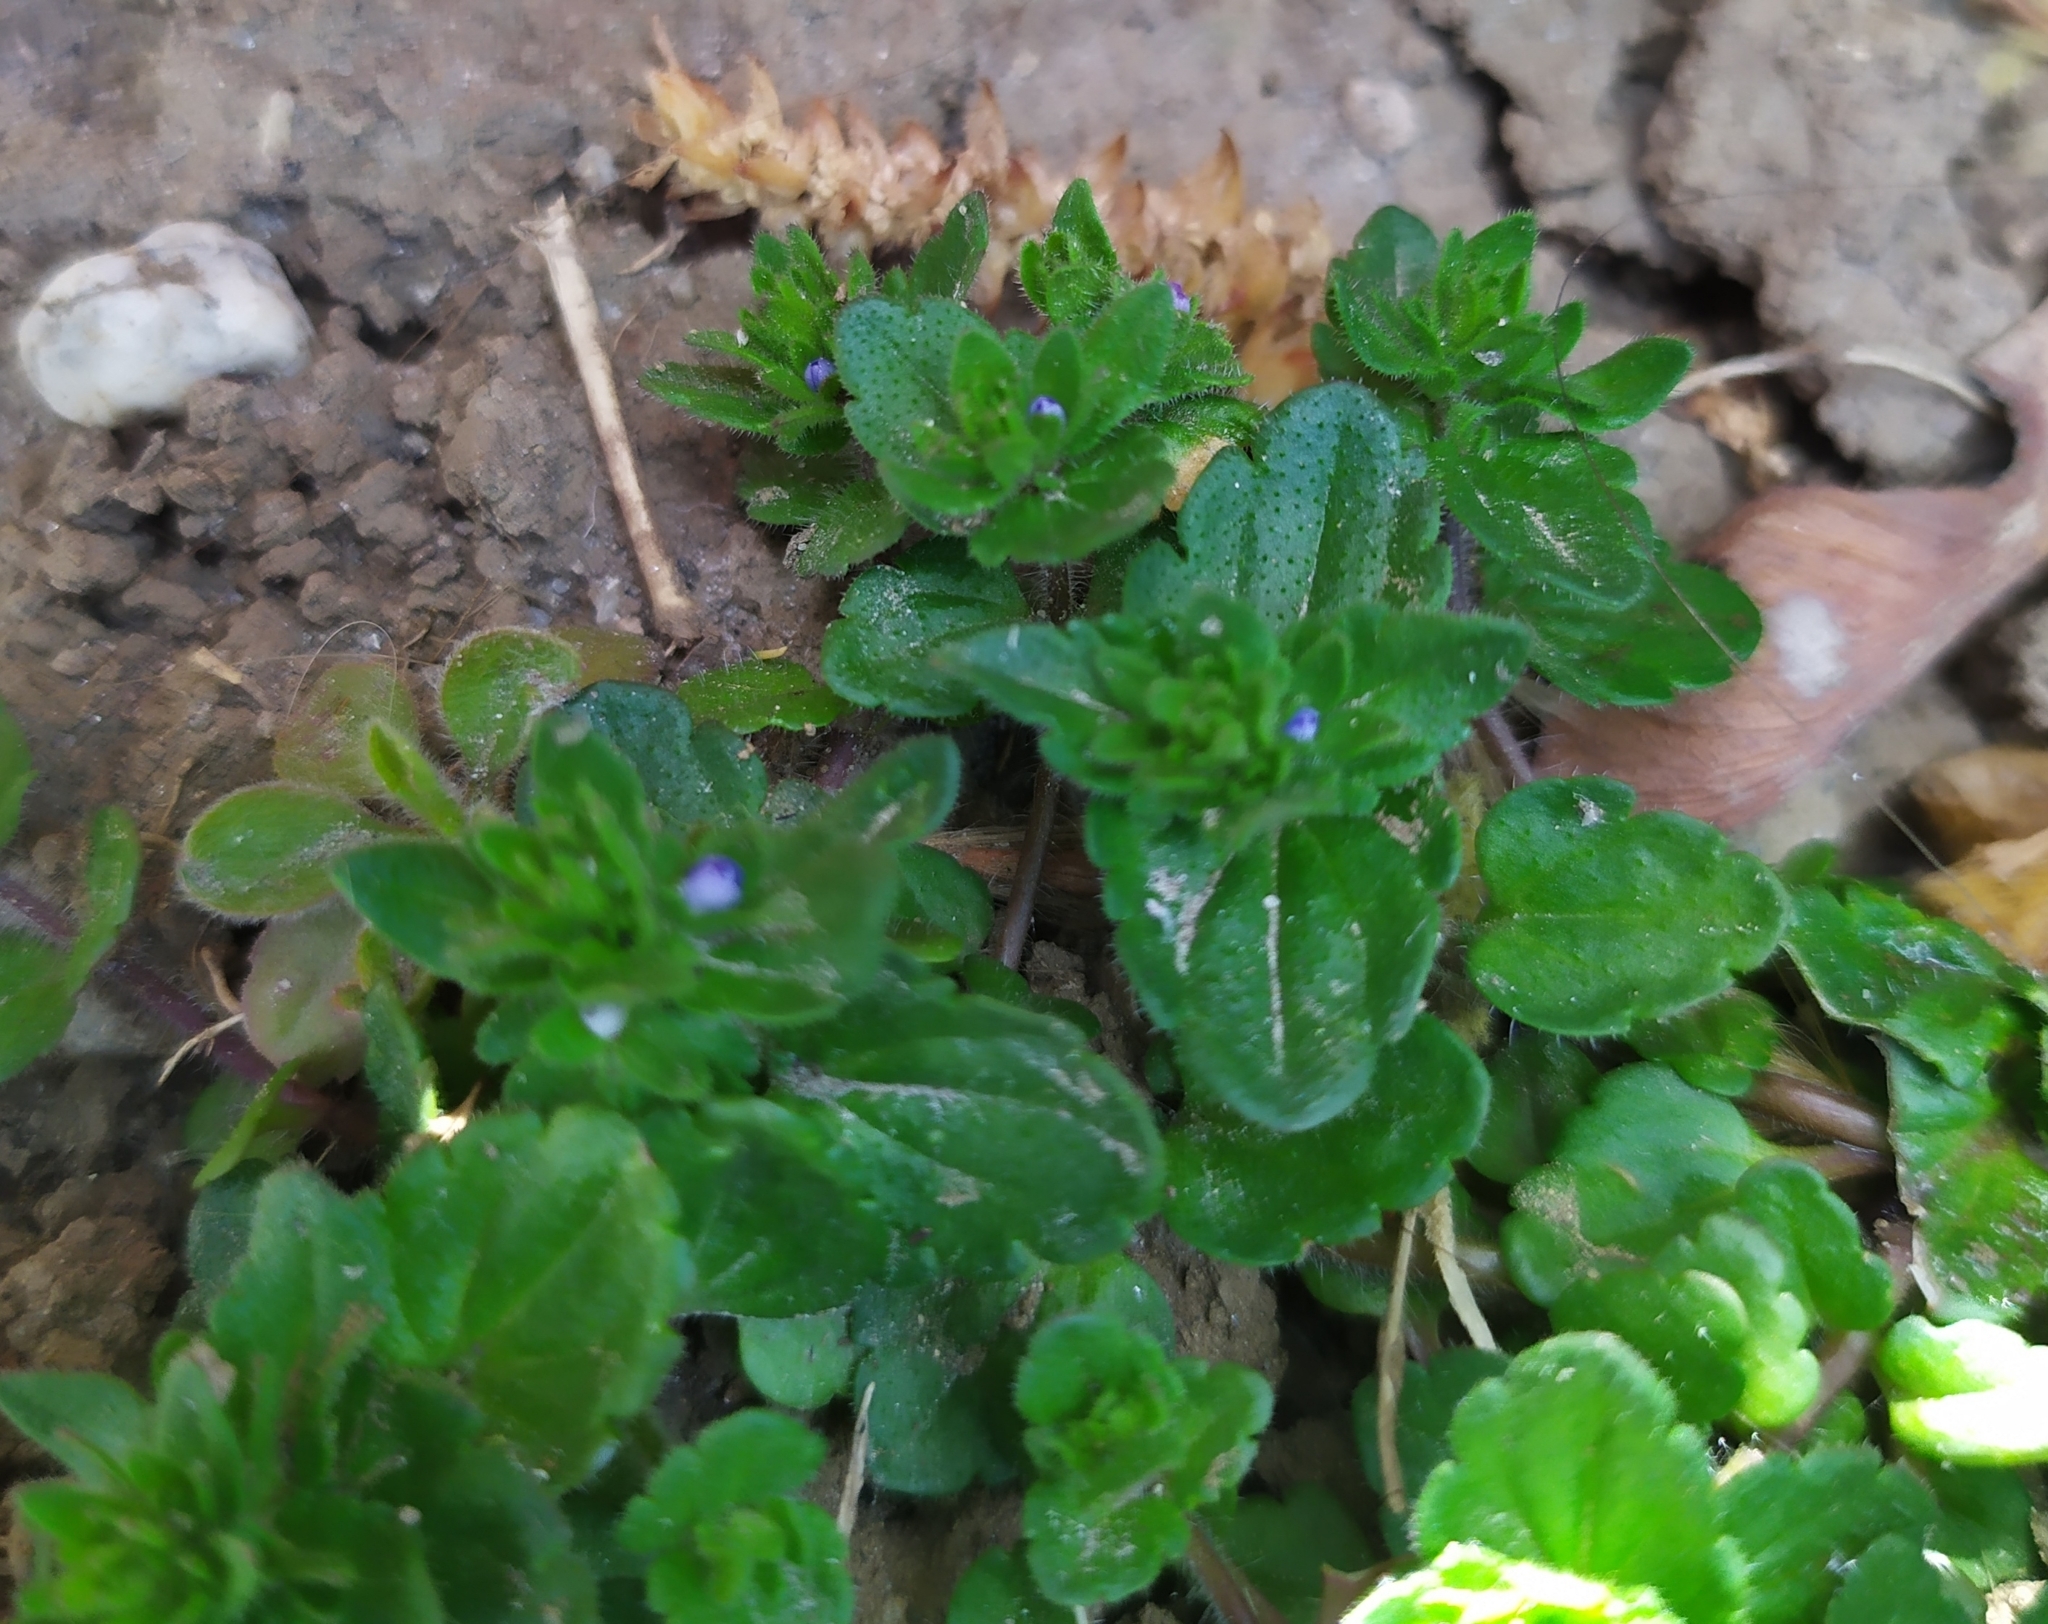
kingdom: Plantae
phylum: Tracheophyta
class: Magnoliopsida
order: Lamiales
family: Plantaginaceae
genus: Veronica
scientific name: Veronica arvensis
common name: Corn speedwell
